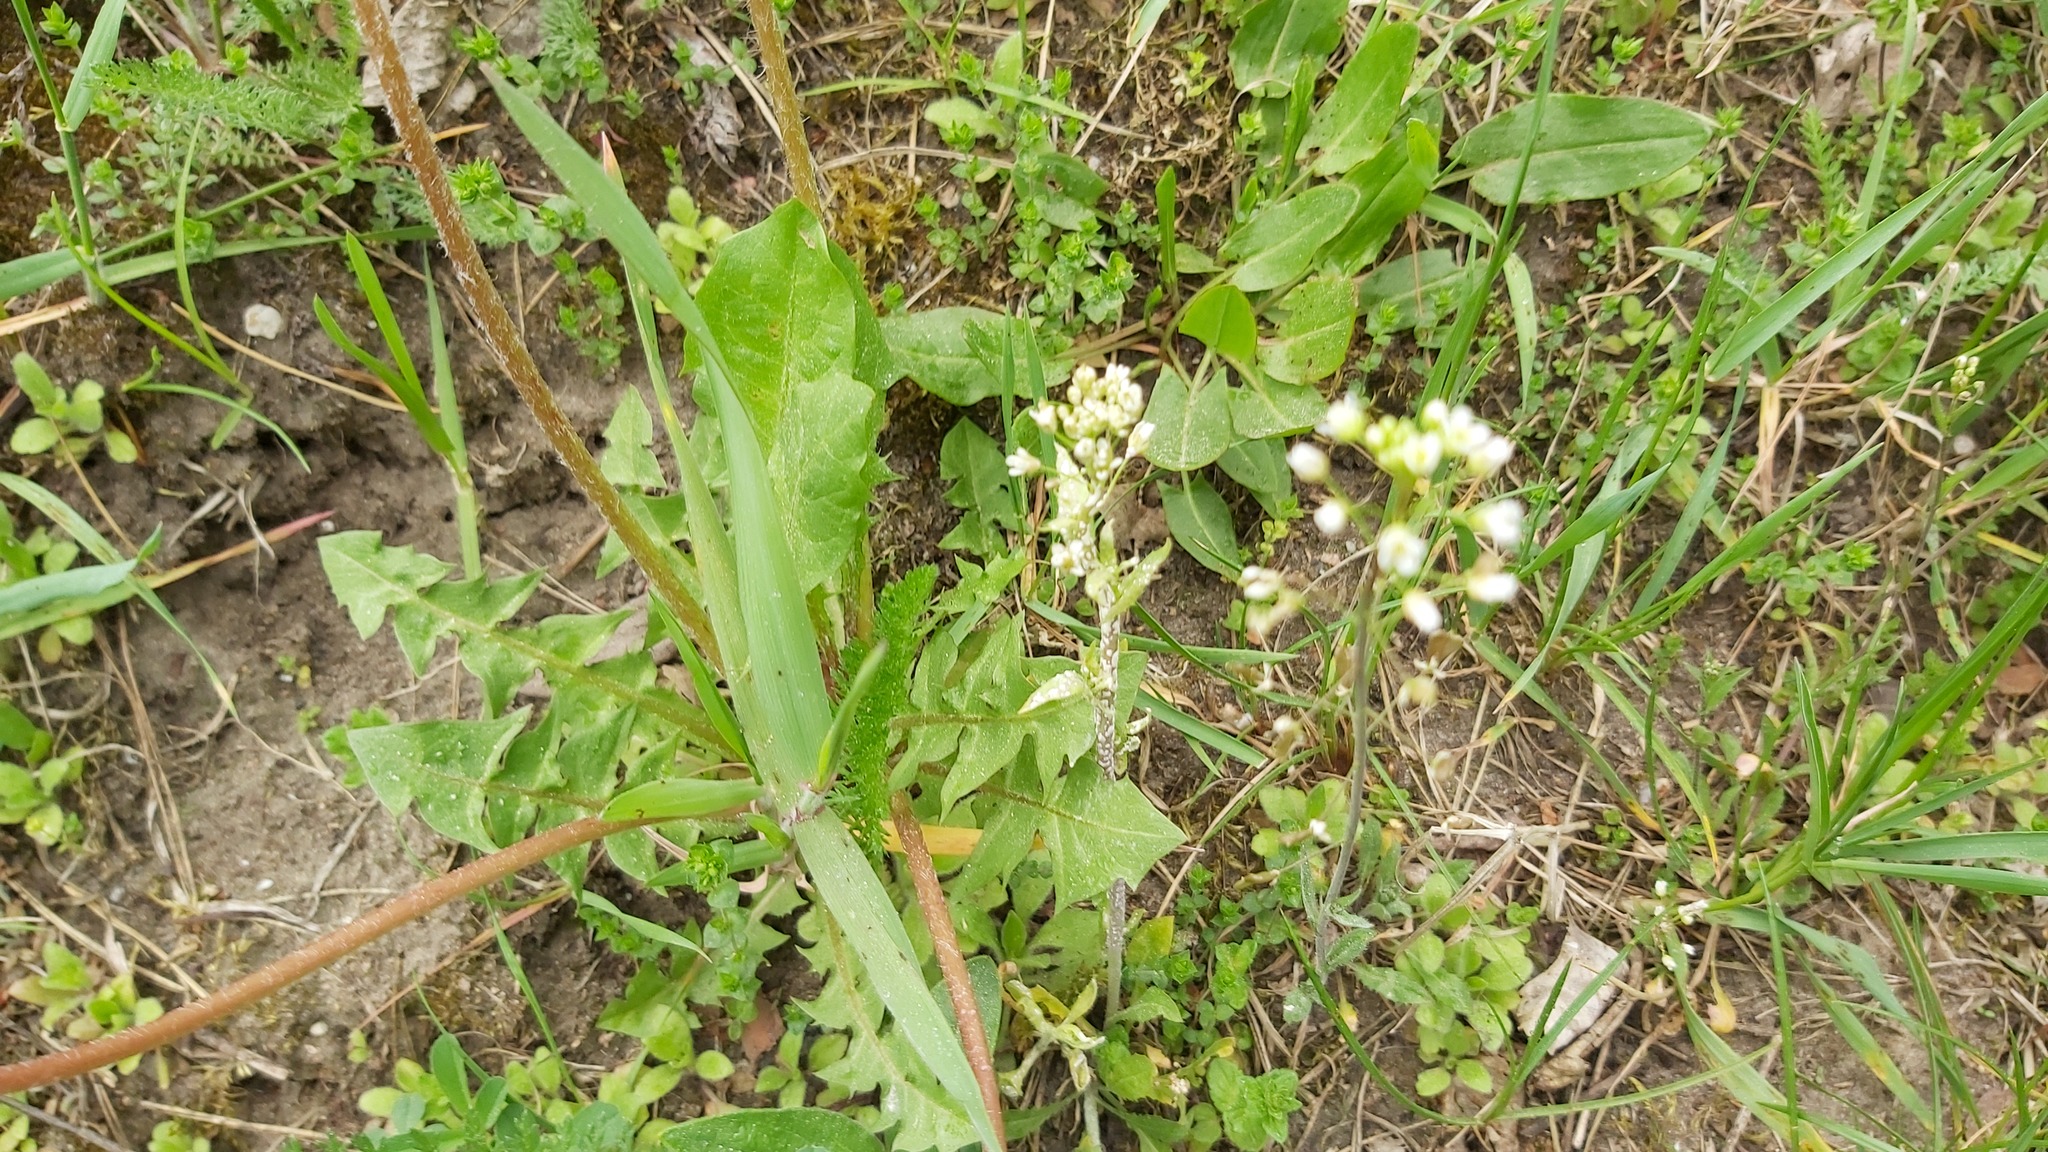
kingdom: Chromista
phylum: Oomycota
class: Peronosporea
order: Albuginales
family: Albuginaceae
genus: Albugo
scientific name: Albugo candida
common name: Crucifer white blister
